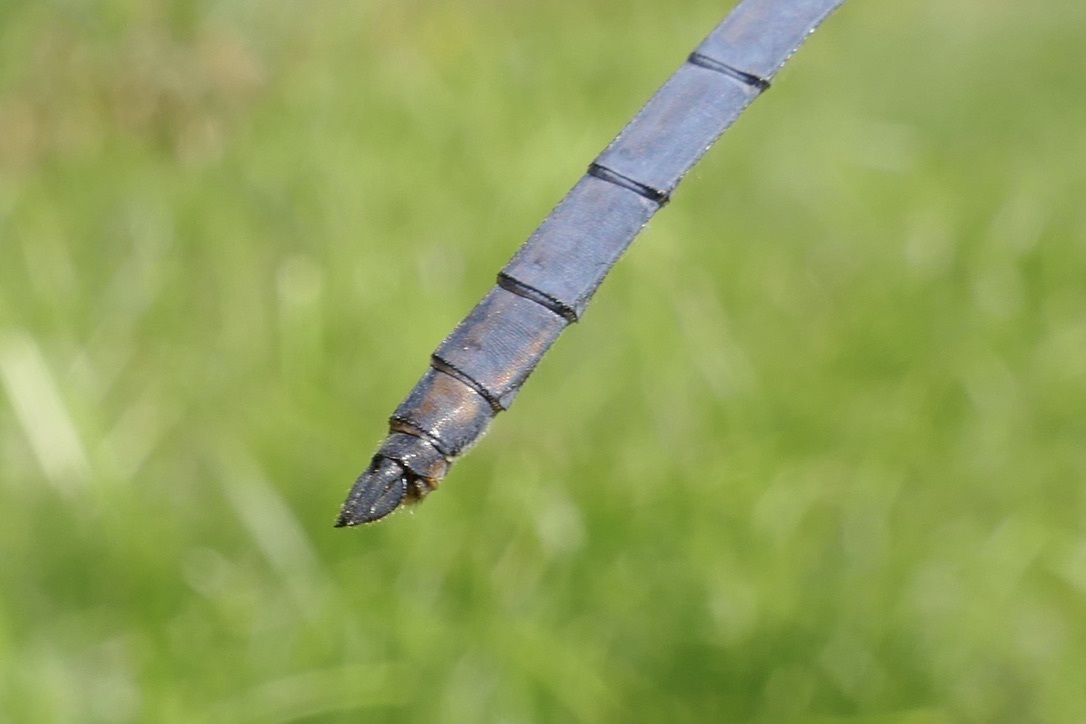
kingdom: Animalia
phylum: Arthropoda
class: Insecta
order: Odonata
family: Libellulidae
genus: Orthetrum
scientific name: Orthetrum coerulescens
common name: Keeled skimmer
